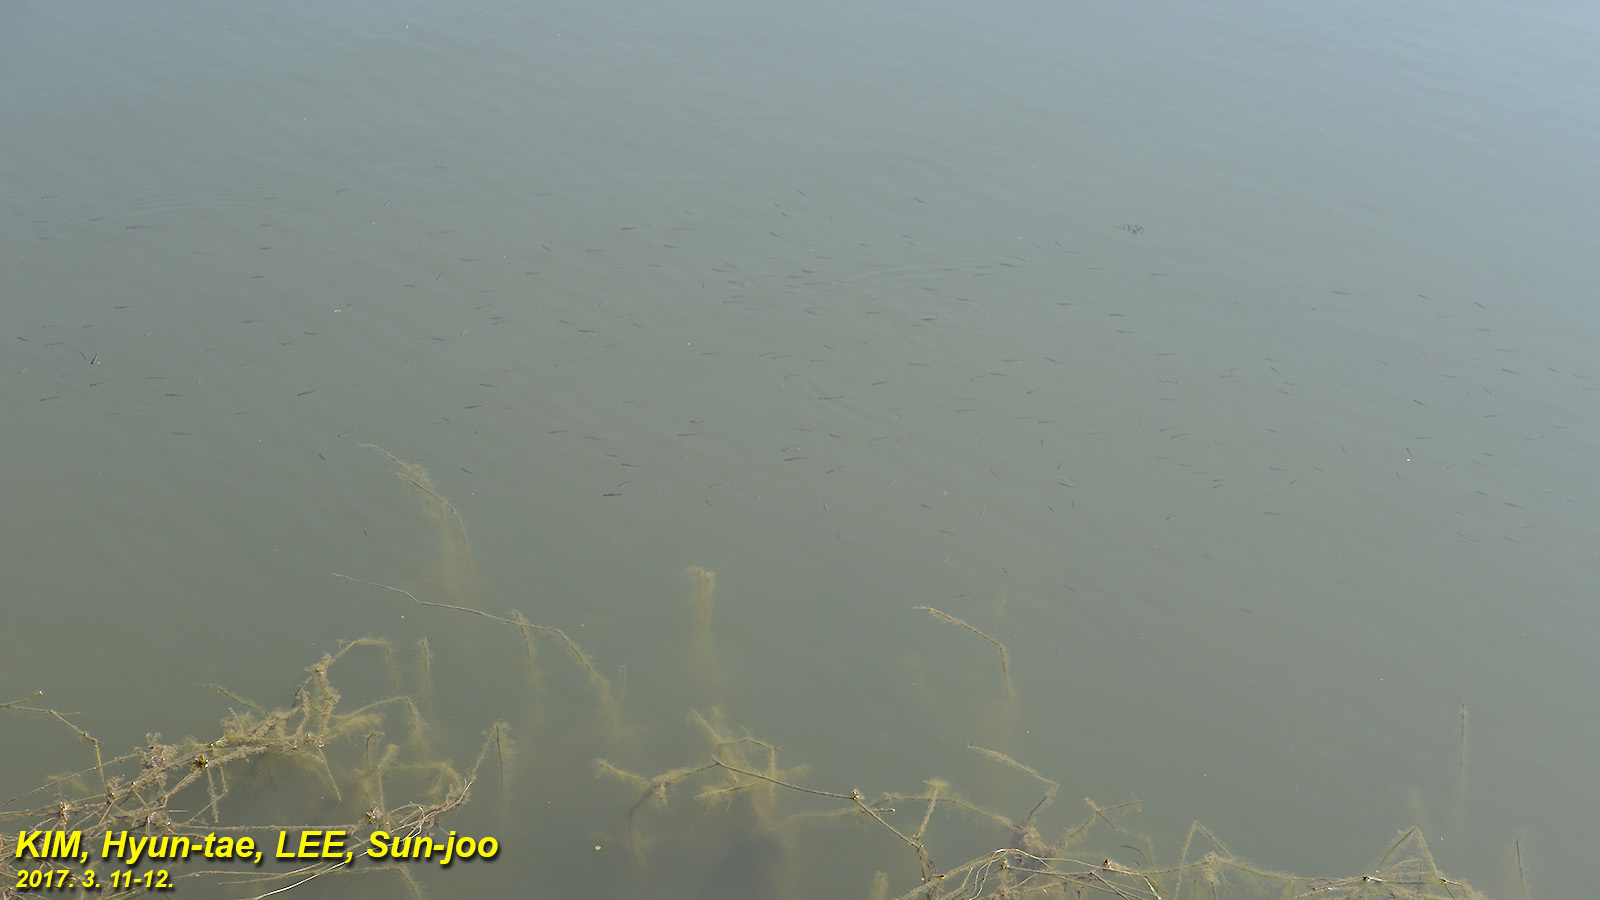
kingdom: Animalia
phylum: Chordata
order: Cypriniformes
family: Cyprinidae
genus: Pseudorasbora
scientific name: Pseudorasbora parva
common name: Topmouth gudgeon
